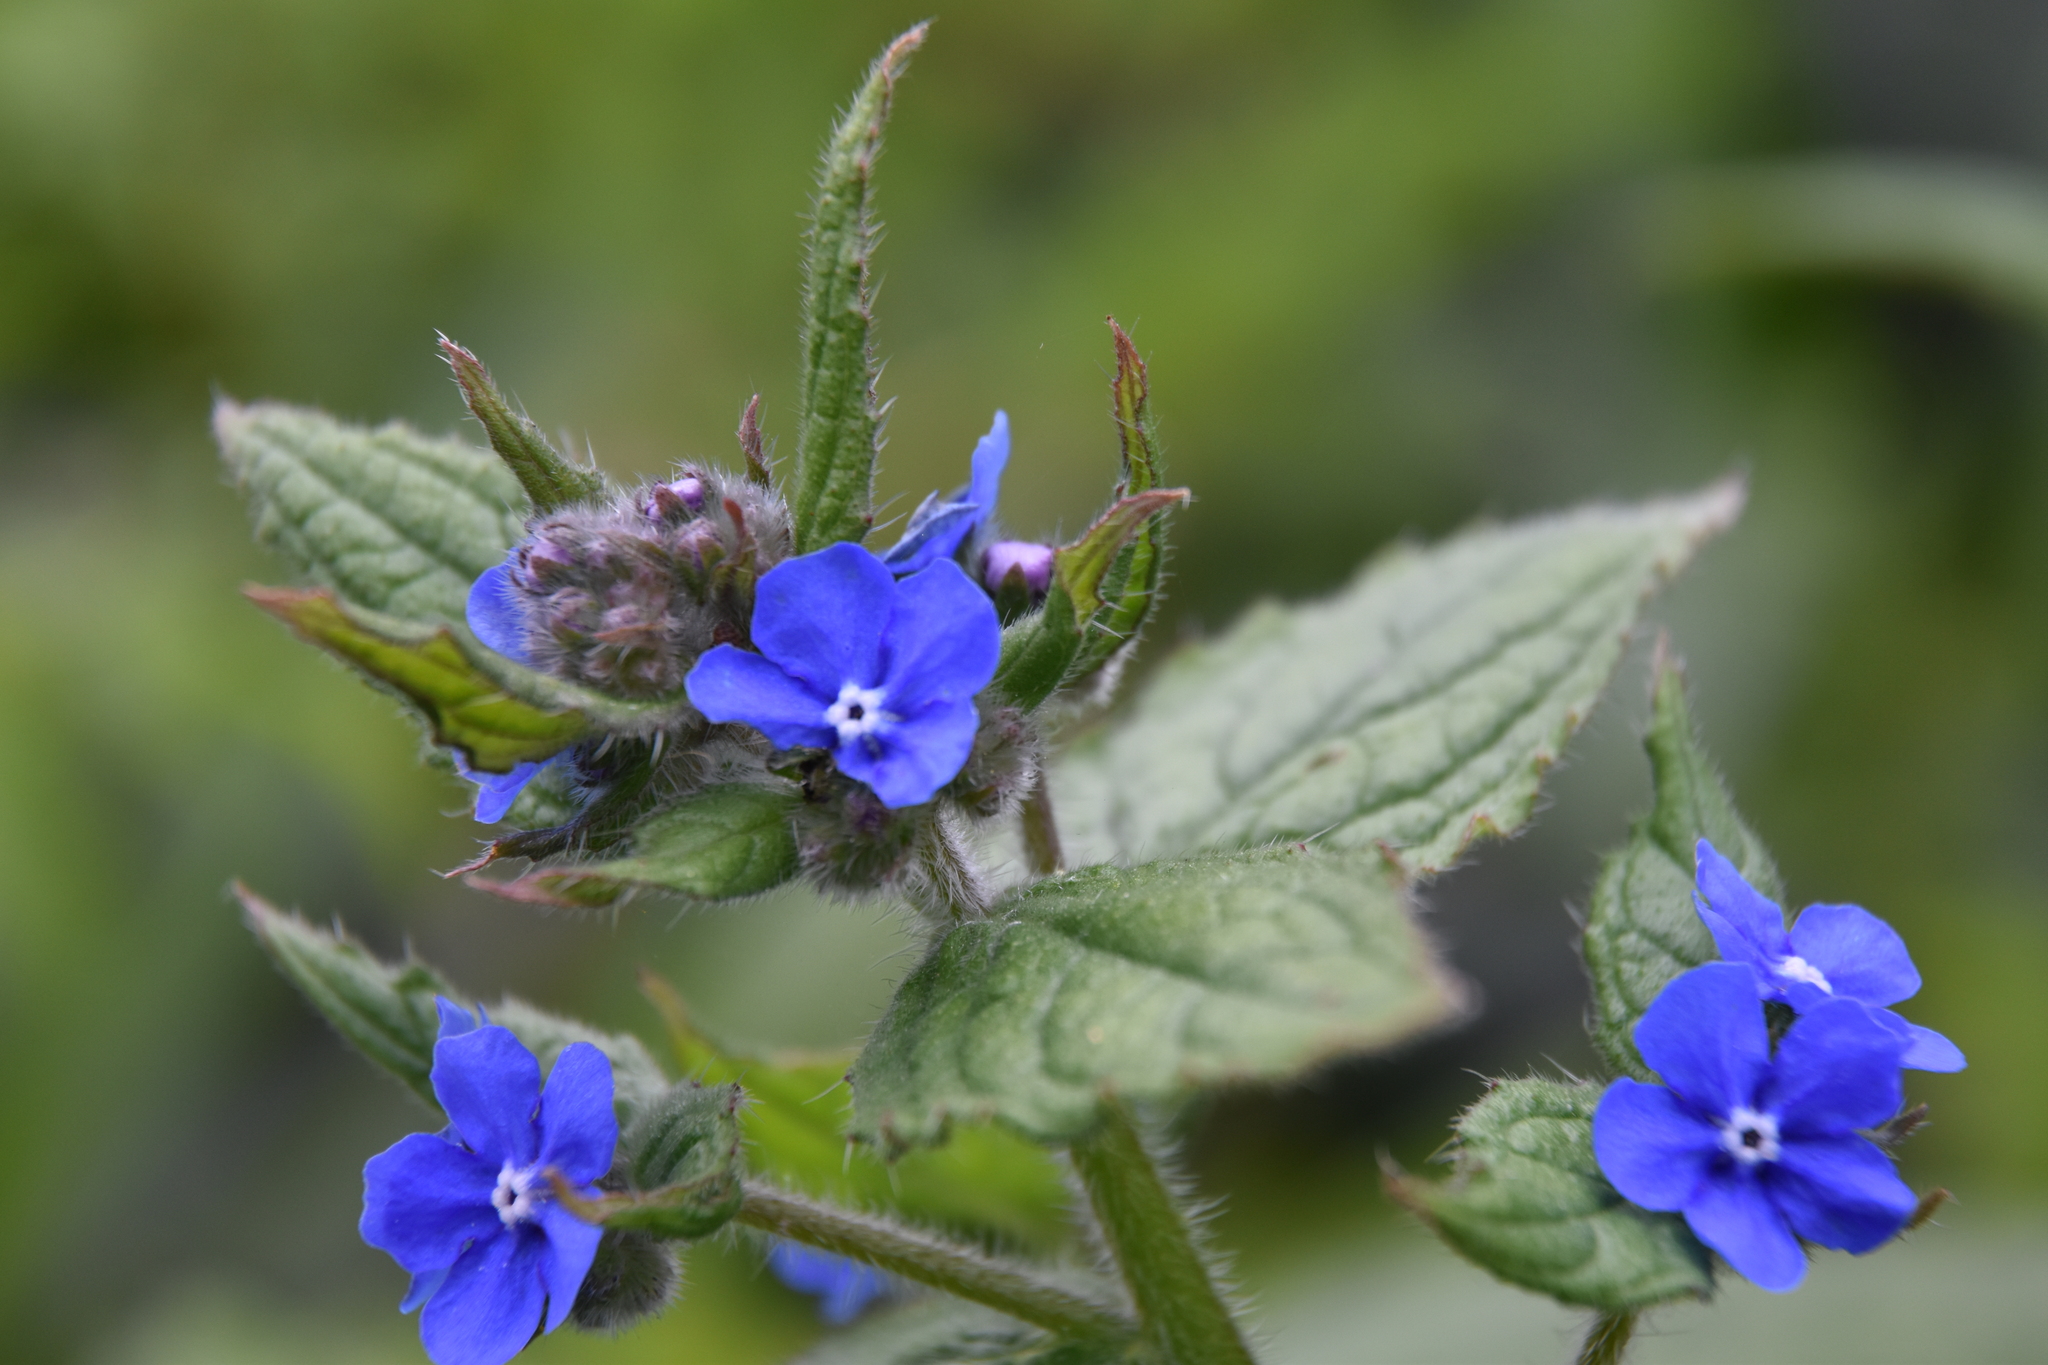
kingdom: Plantae
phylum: Tracheophyta
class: Magnoliopsida
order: Boraginales
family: Boraginaceae
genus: Pentaglottis
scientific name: Pentaglottis sempervirens
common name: Green alkanet
